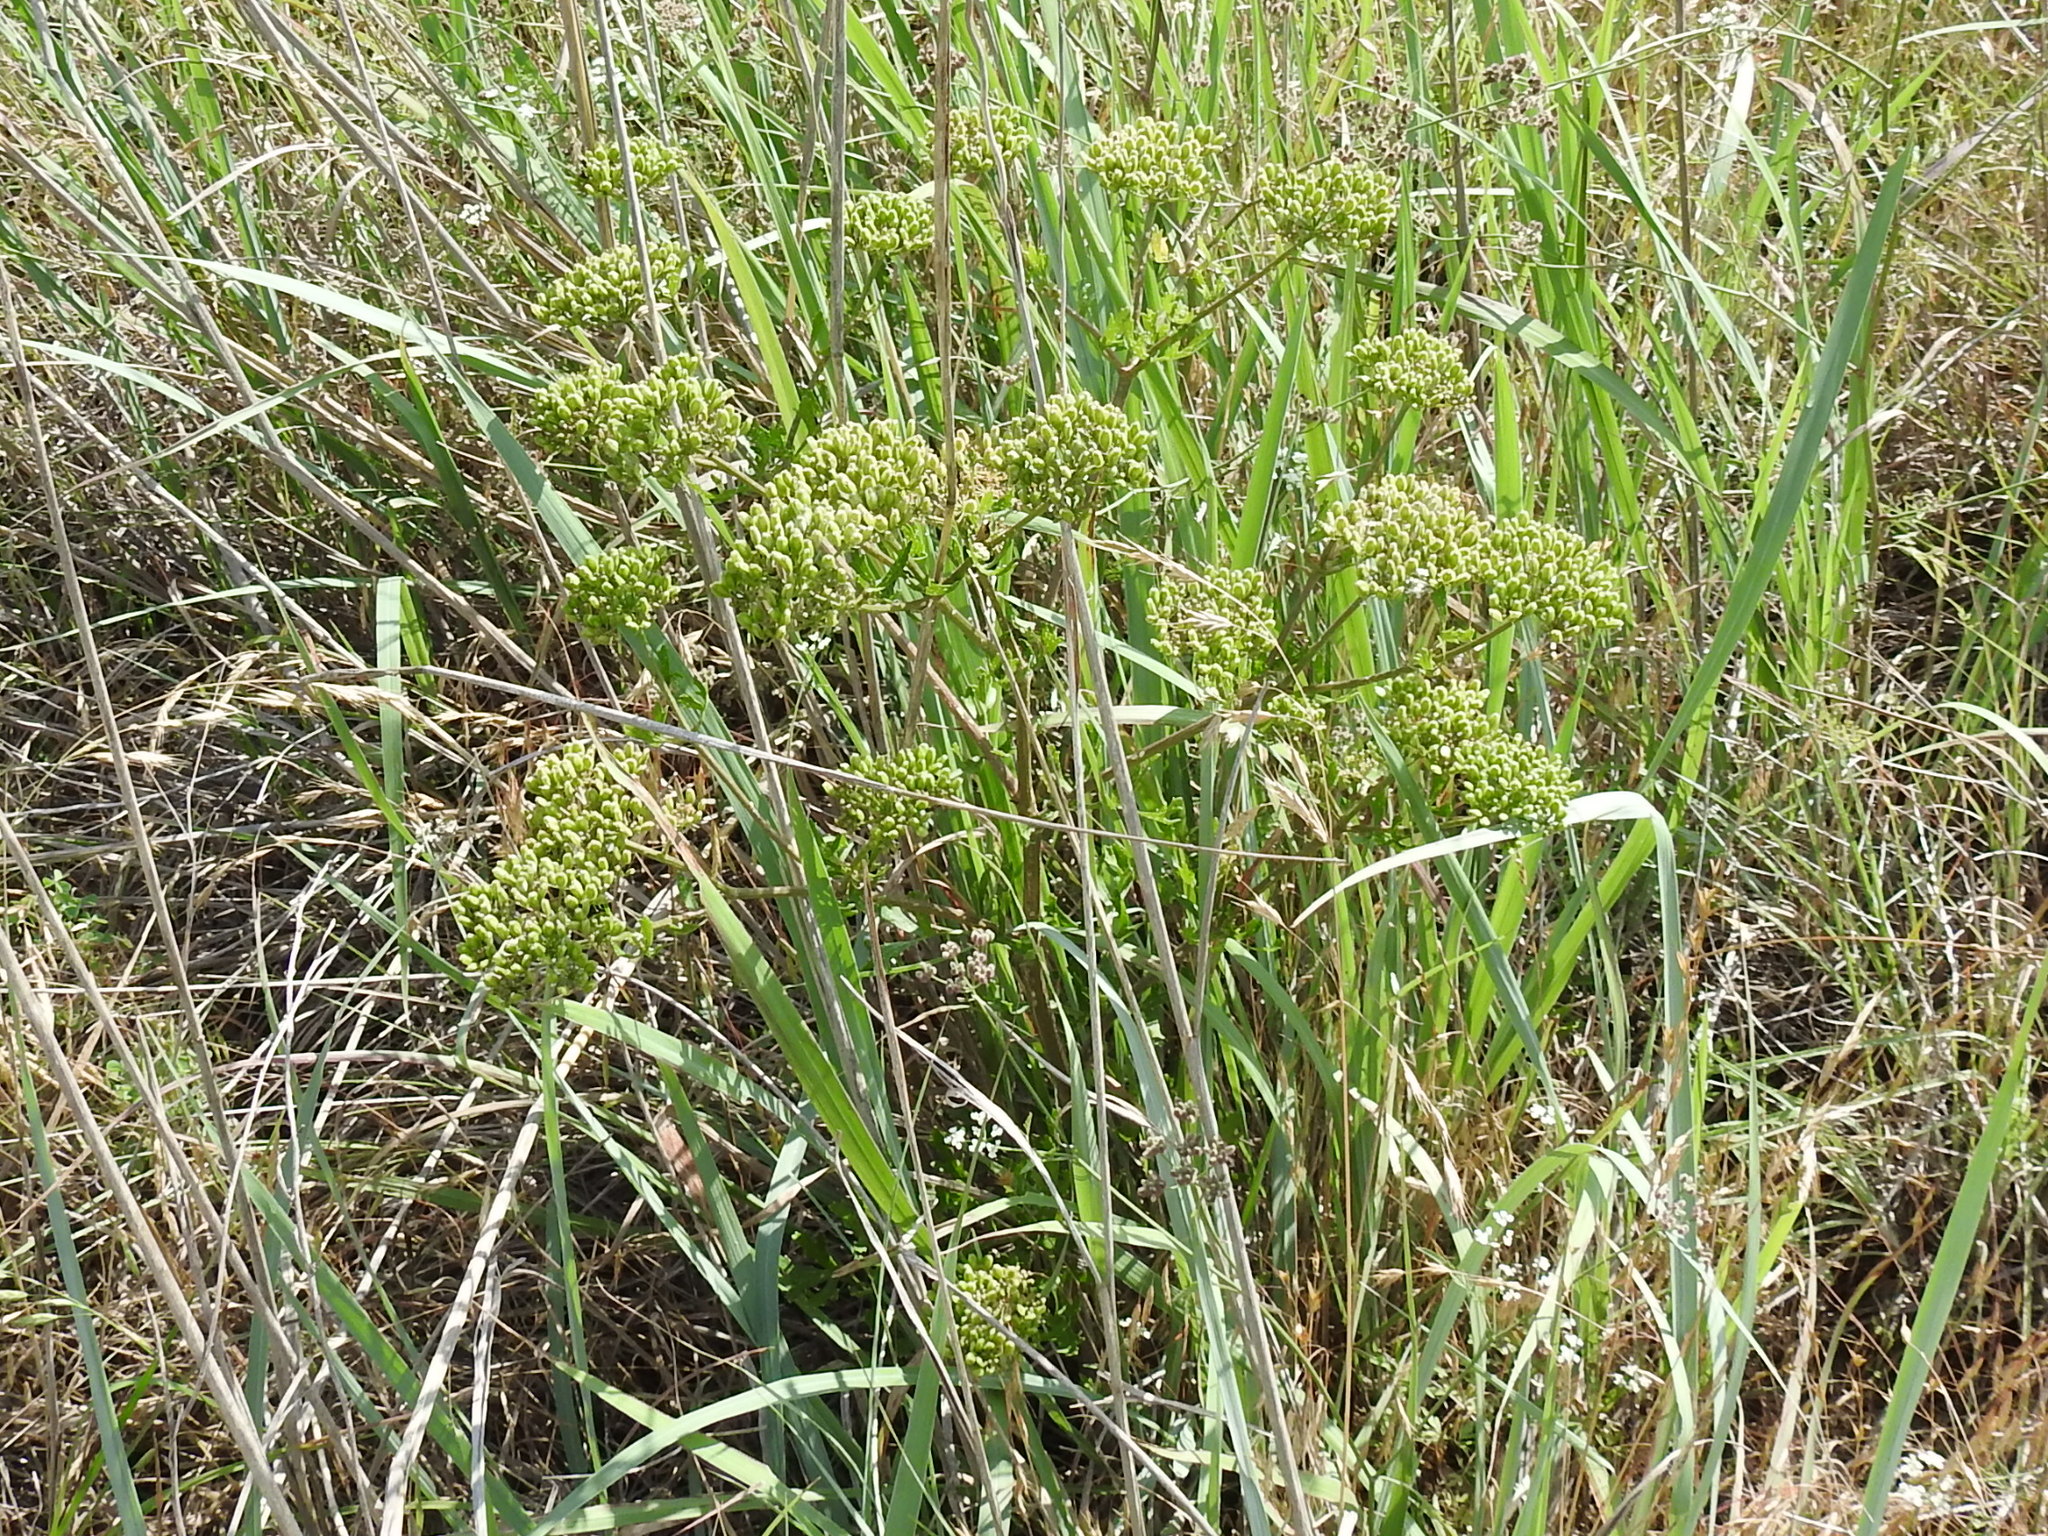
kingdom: Plantae
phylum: Tracheophyta
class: Magnoliopsida
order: Apiales
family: Apiaceae
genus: Polytaenia
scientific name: Polytaenia texana
